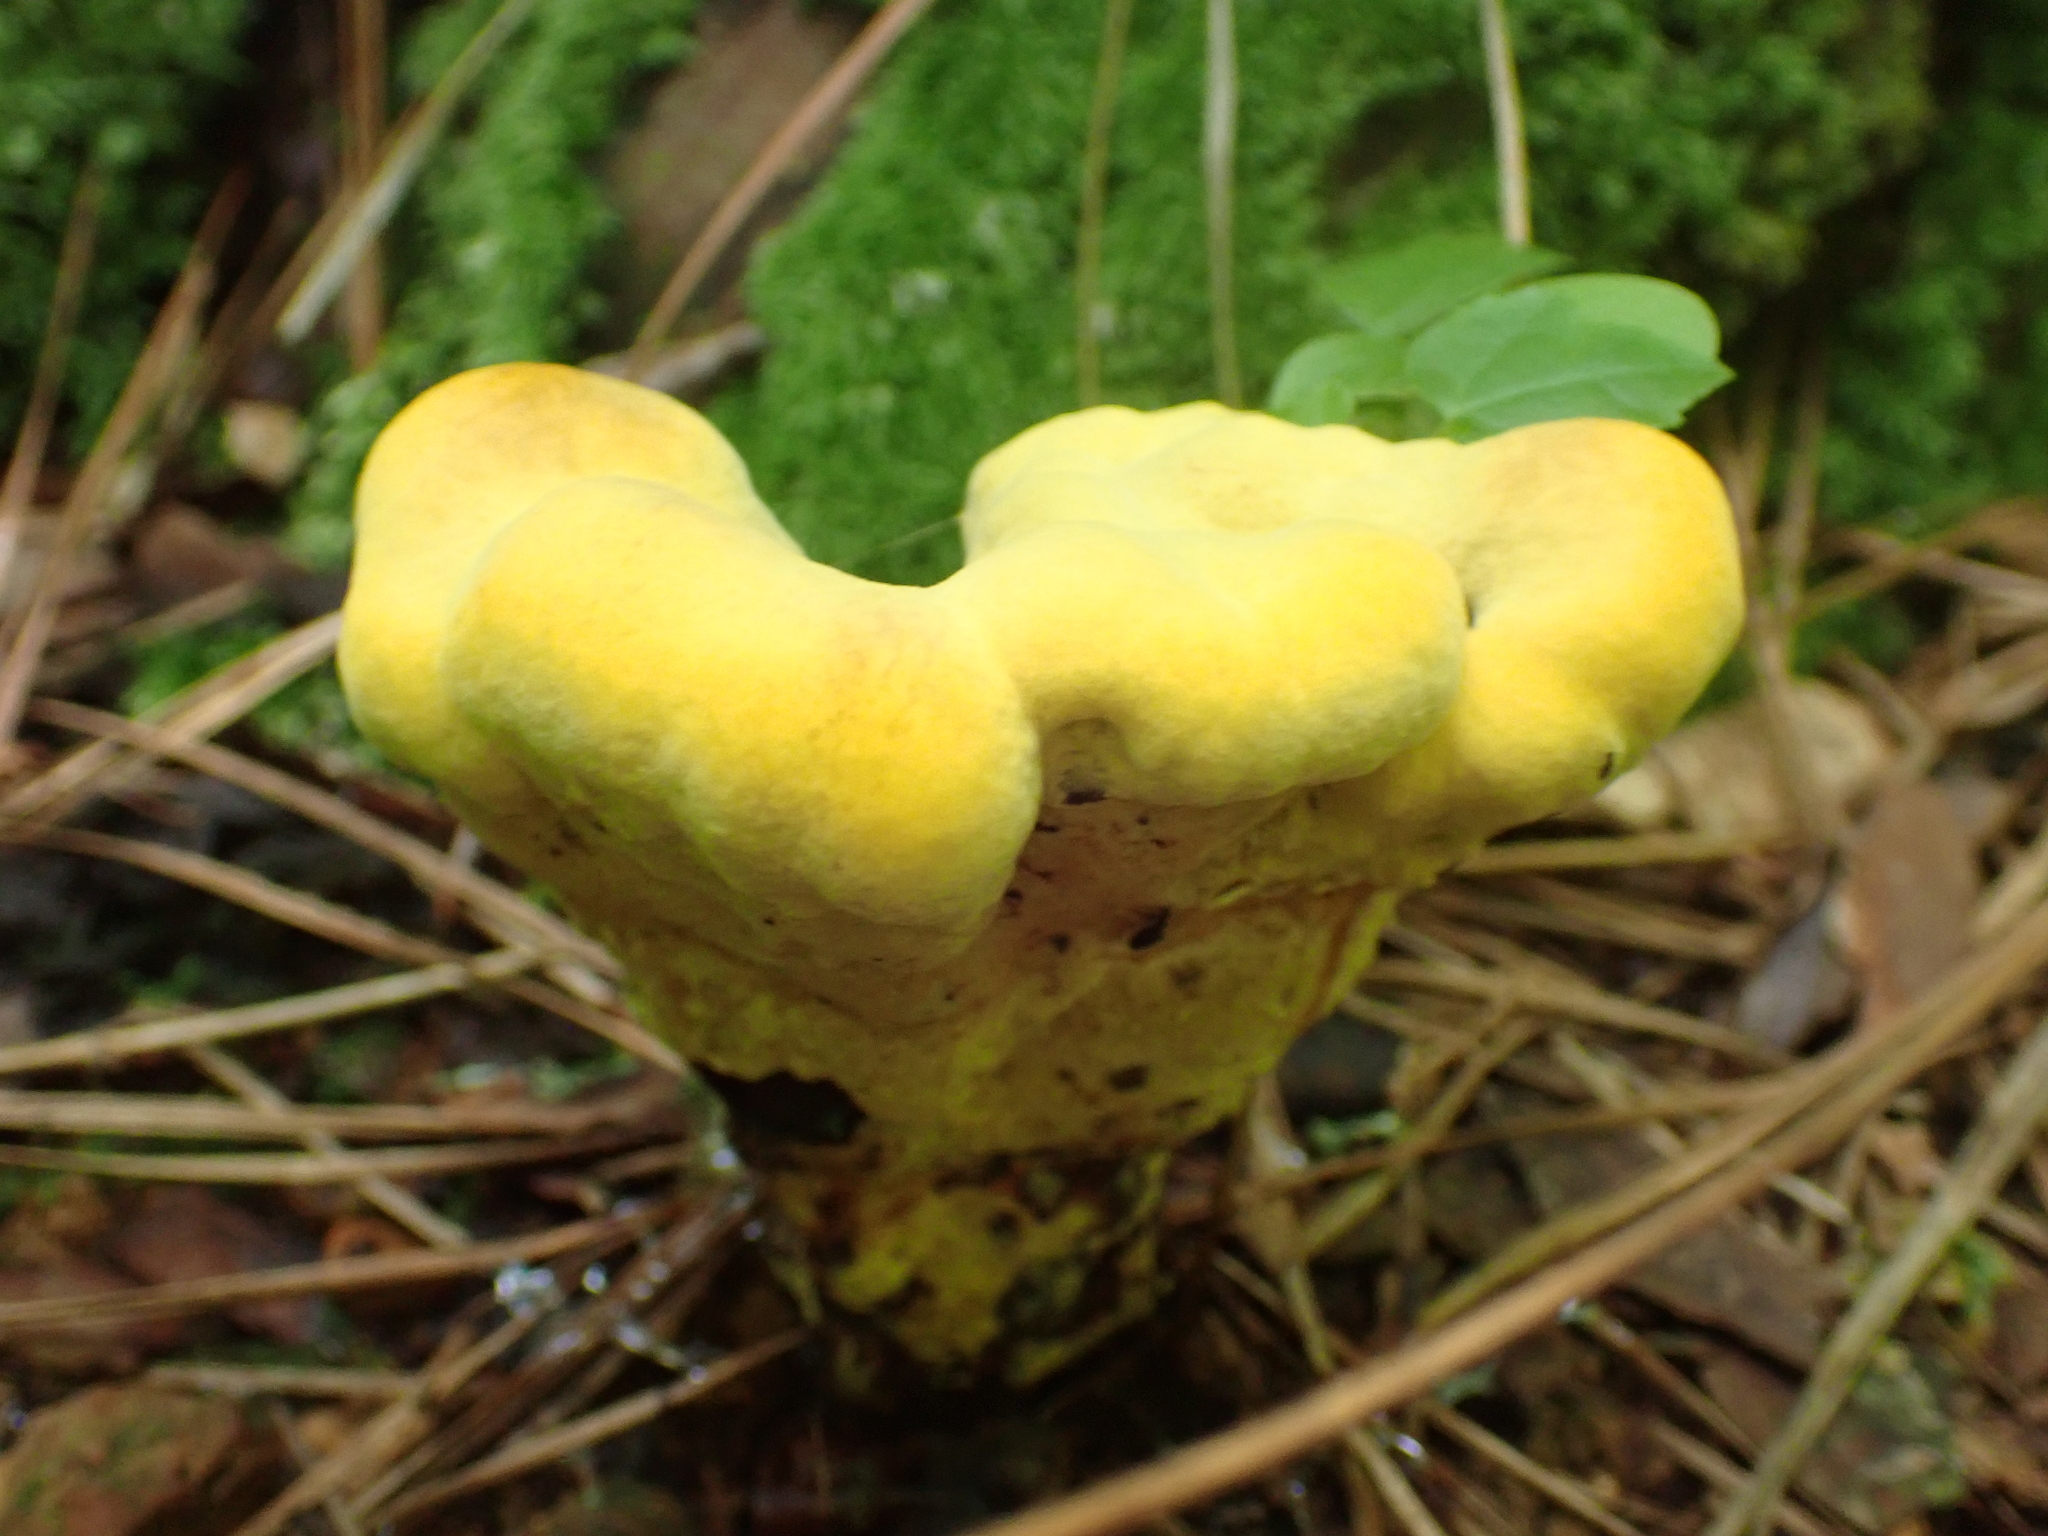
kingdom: Fungi
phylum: Basidiomycota
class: Agaricomycetes
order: Polyporales
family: Laetiporaceae
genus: Phaeolus
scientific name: Phaeolus schweinitzii
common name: Dyer's mazegill
